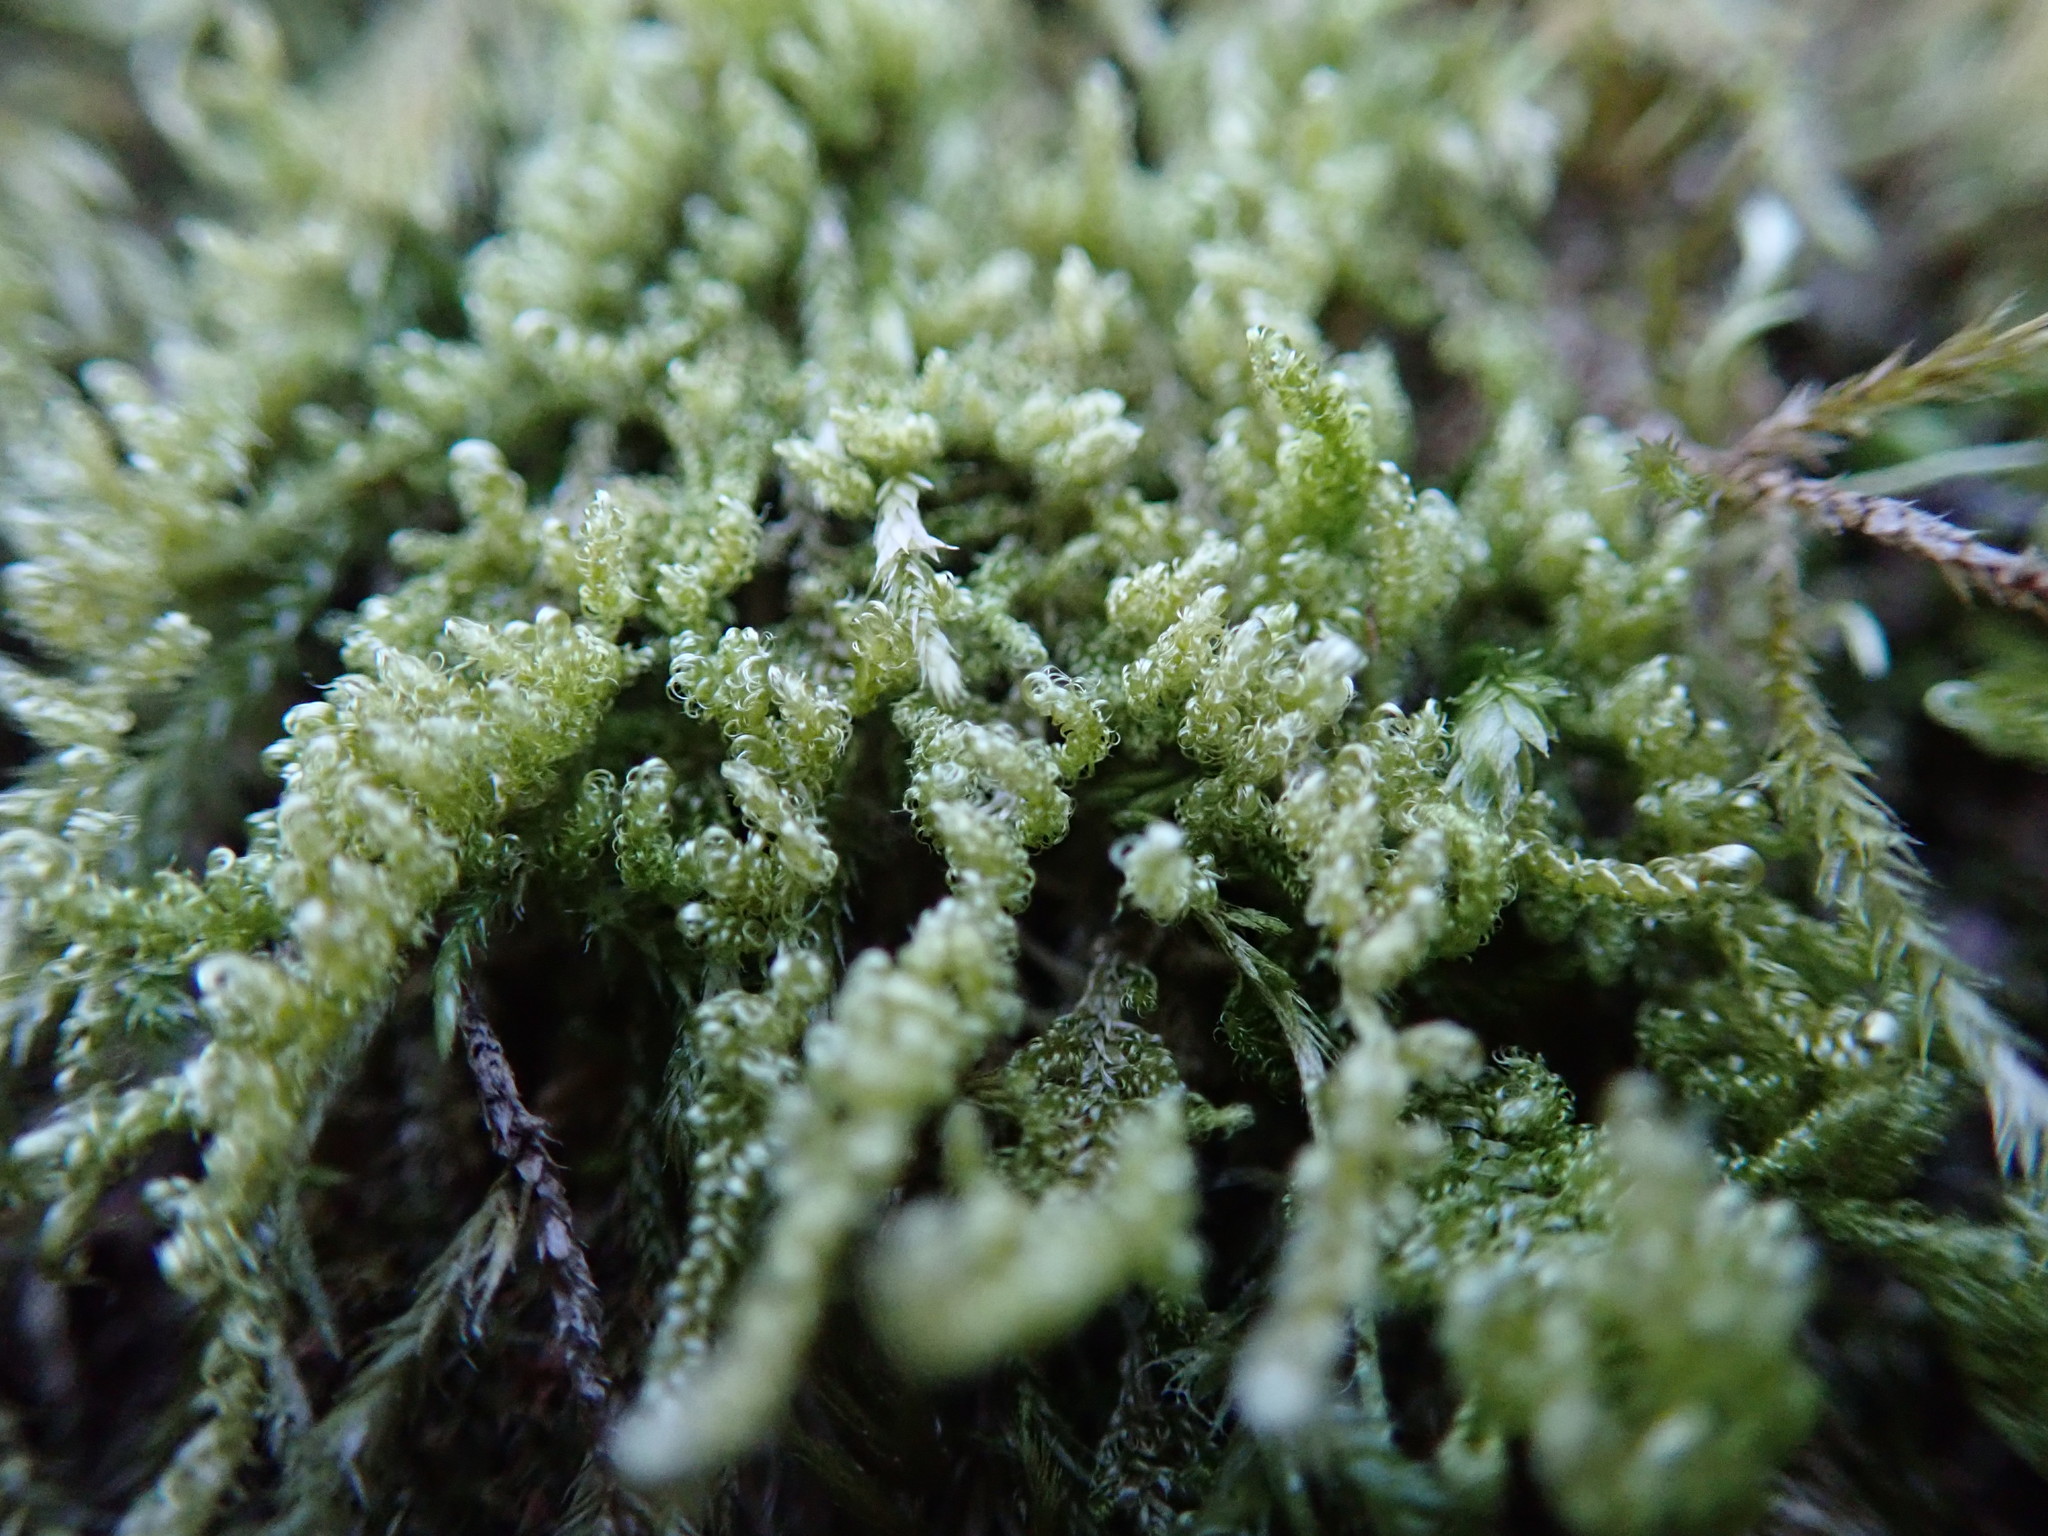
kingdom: Plantae
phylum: Bryophyta
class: Bryopsida
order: Hypnales
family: Stereodontaceae
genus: Stereodon
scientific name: Stereodon subimponens
